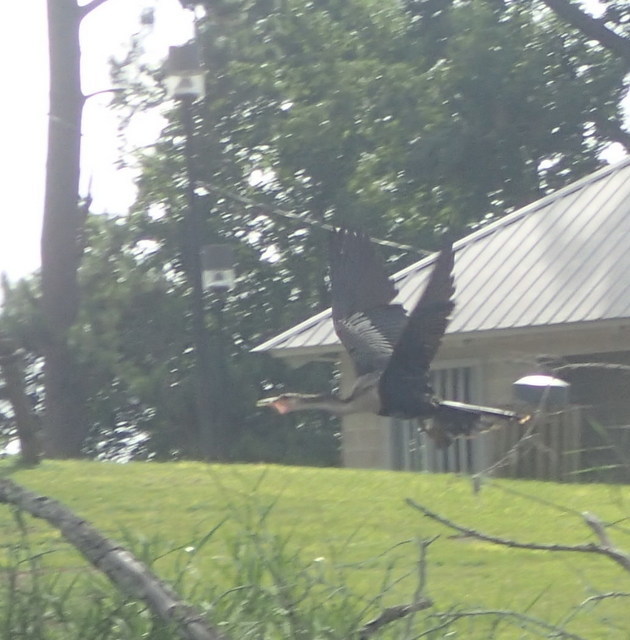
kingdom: Animalia
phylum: Chordata
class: Aves
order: Suliformes
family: Anhingidae
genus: Anhinga
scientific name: Anhinga anhinga
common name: Anhinga
